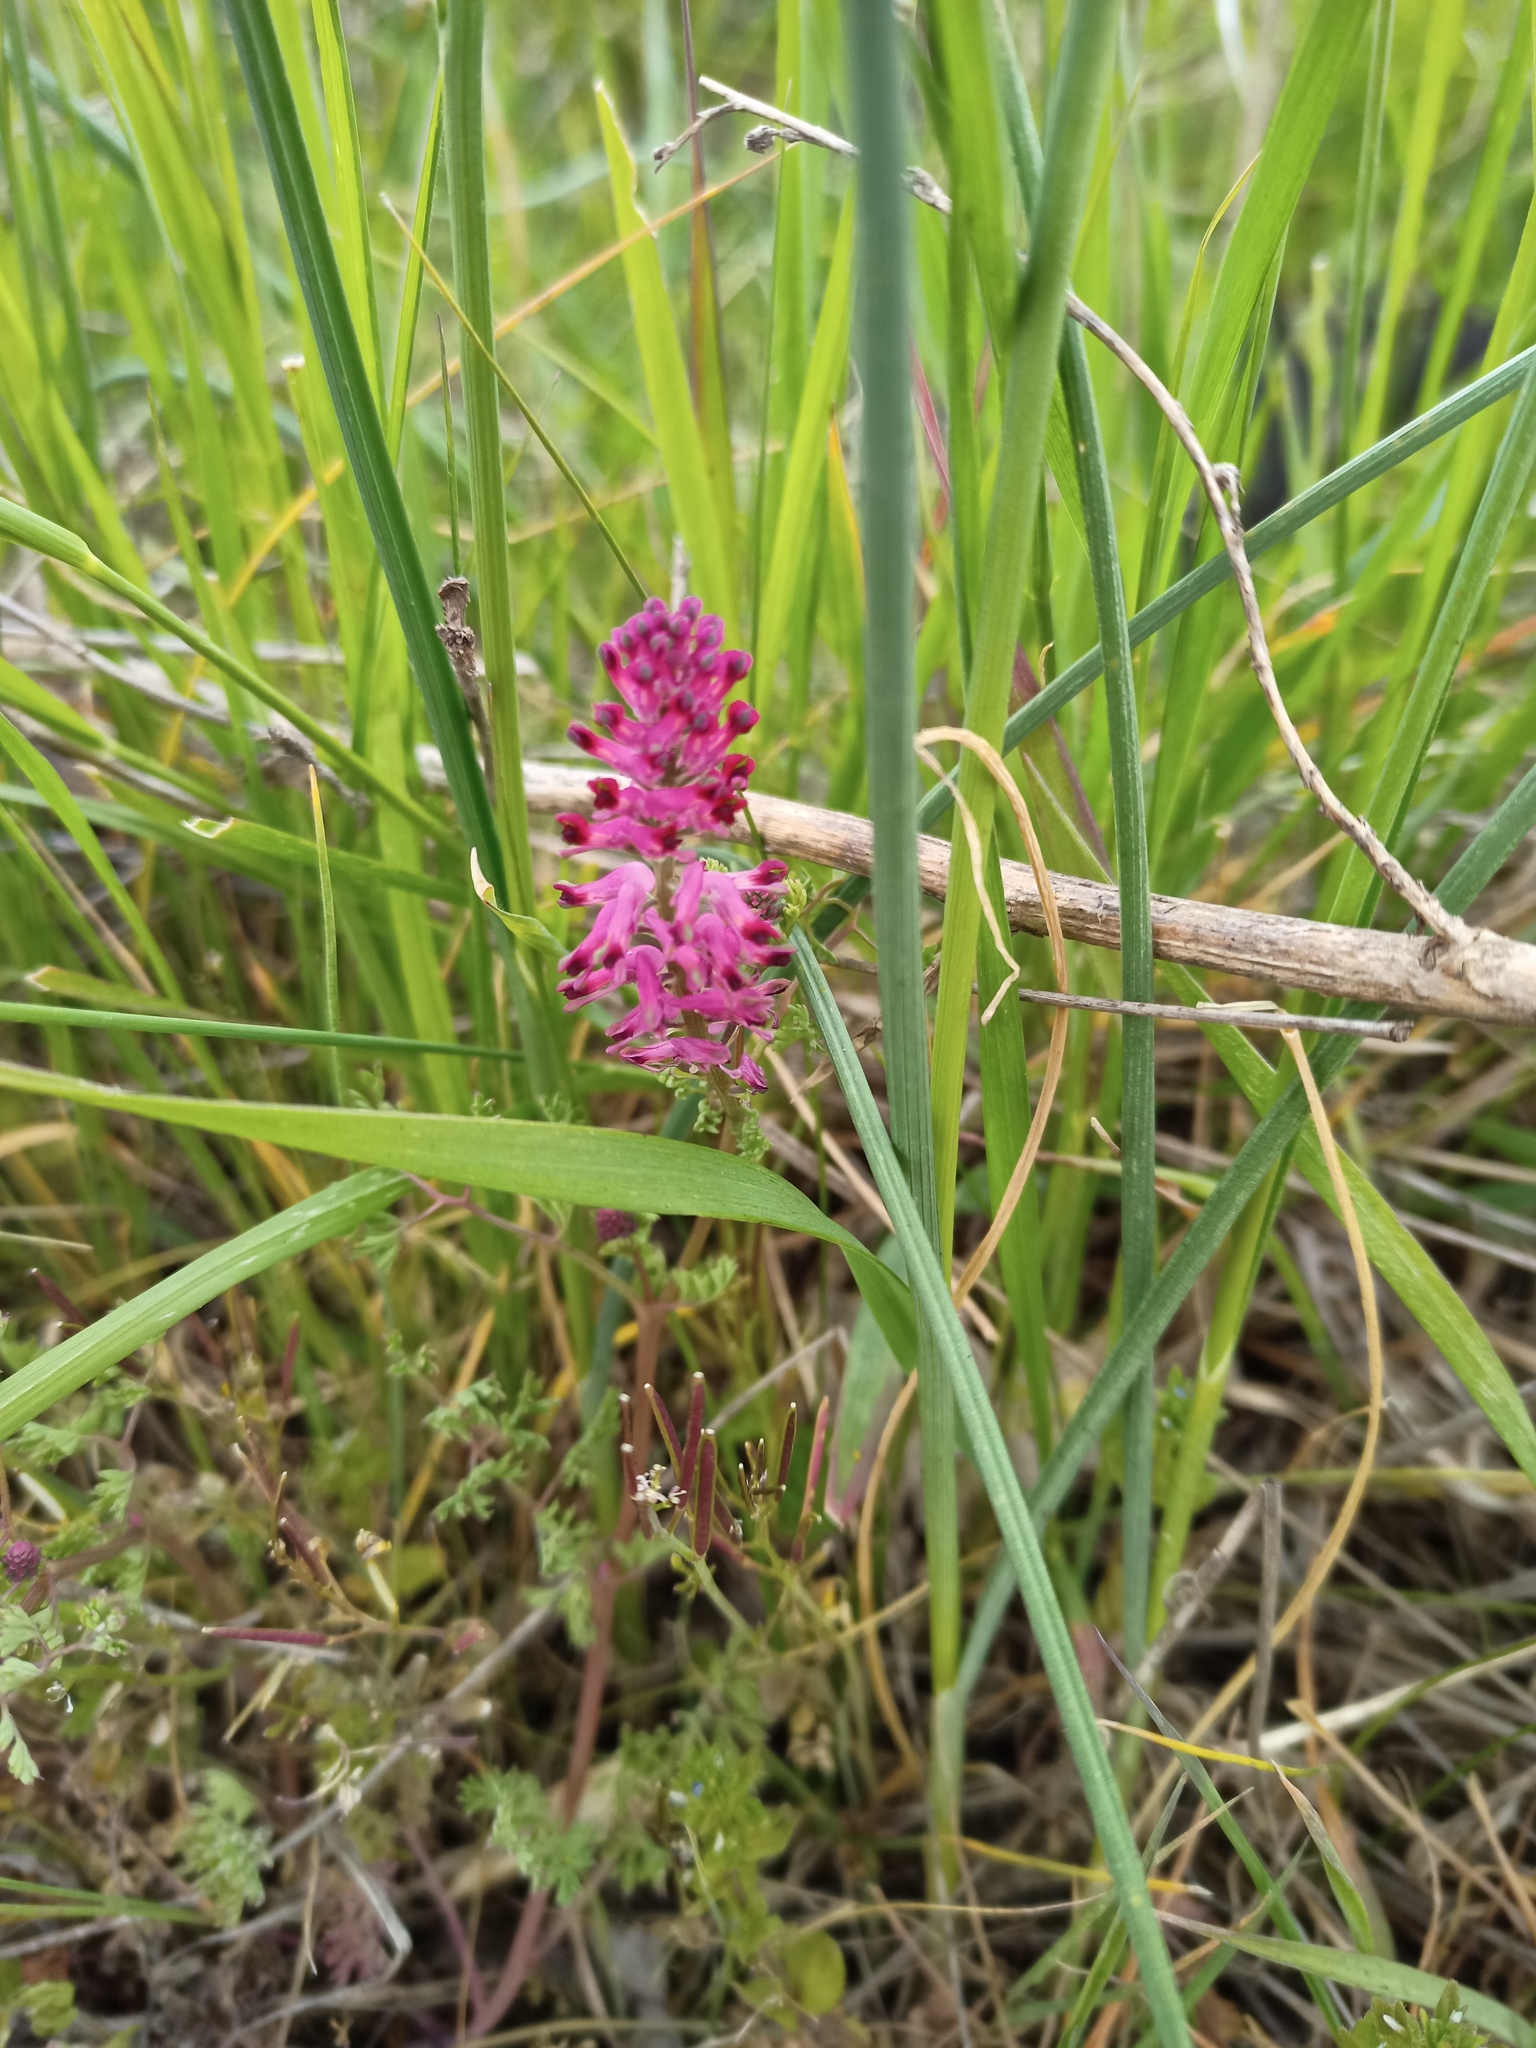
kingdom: Plantae
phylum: Tracheophyta
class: Magnoliopsida
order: Ranunculales
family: Papaveraceae
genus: Fumaria
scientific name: Fumaria officinalis
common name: Common fumitory
